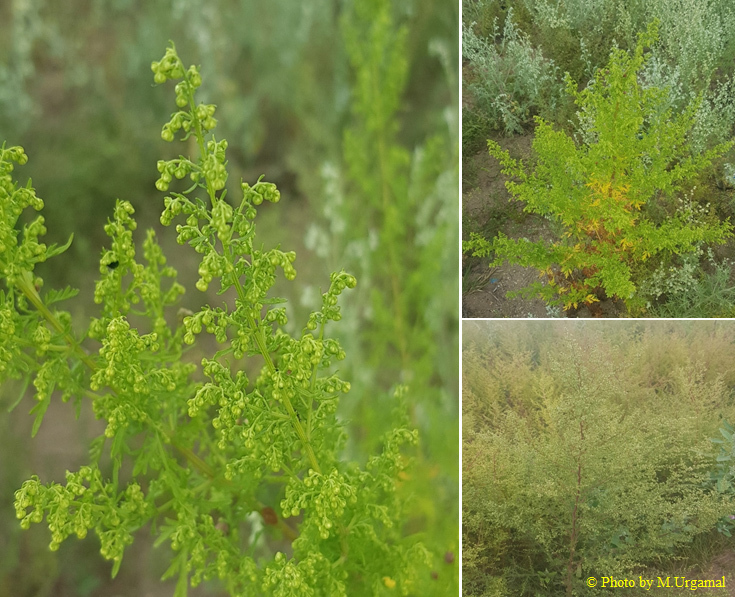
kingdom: Plantae
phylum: Tracheophyta
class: Magnoliopsida
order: Asterales
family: Asteraceae
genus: Artemisia
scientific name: Artemisia annua
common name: Sweet sagewort
